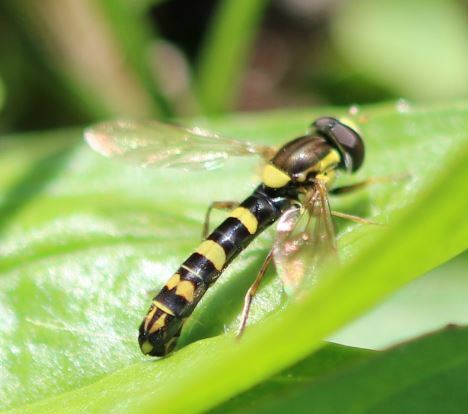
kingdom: Animalia
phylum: Arthropoda
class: Insecta
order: Diptera
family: Syrphidae
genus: Sphaerophoria
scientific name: Sphaerophoria scripta
